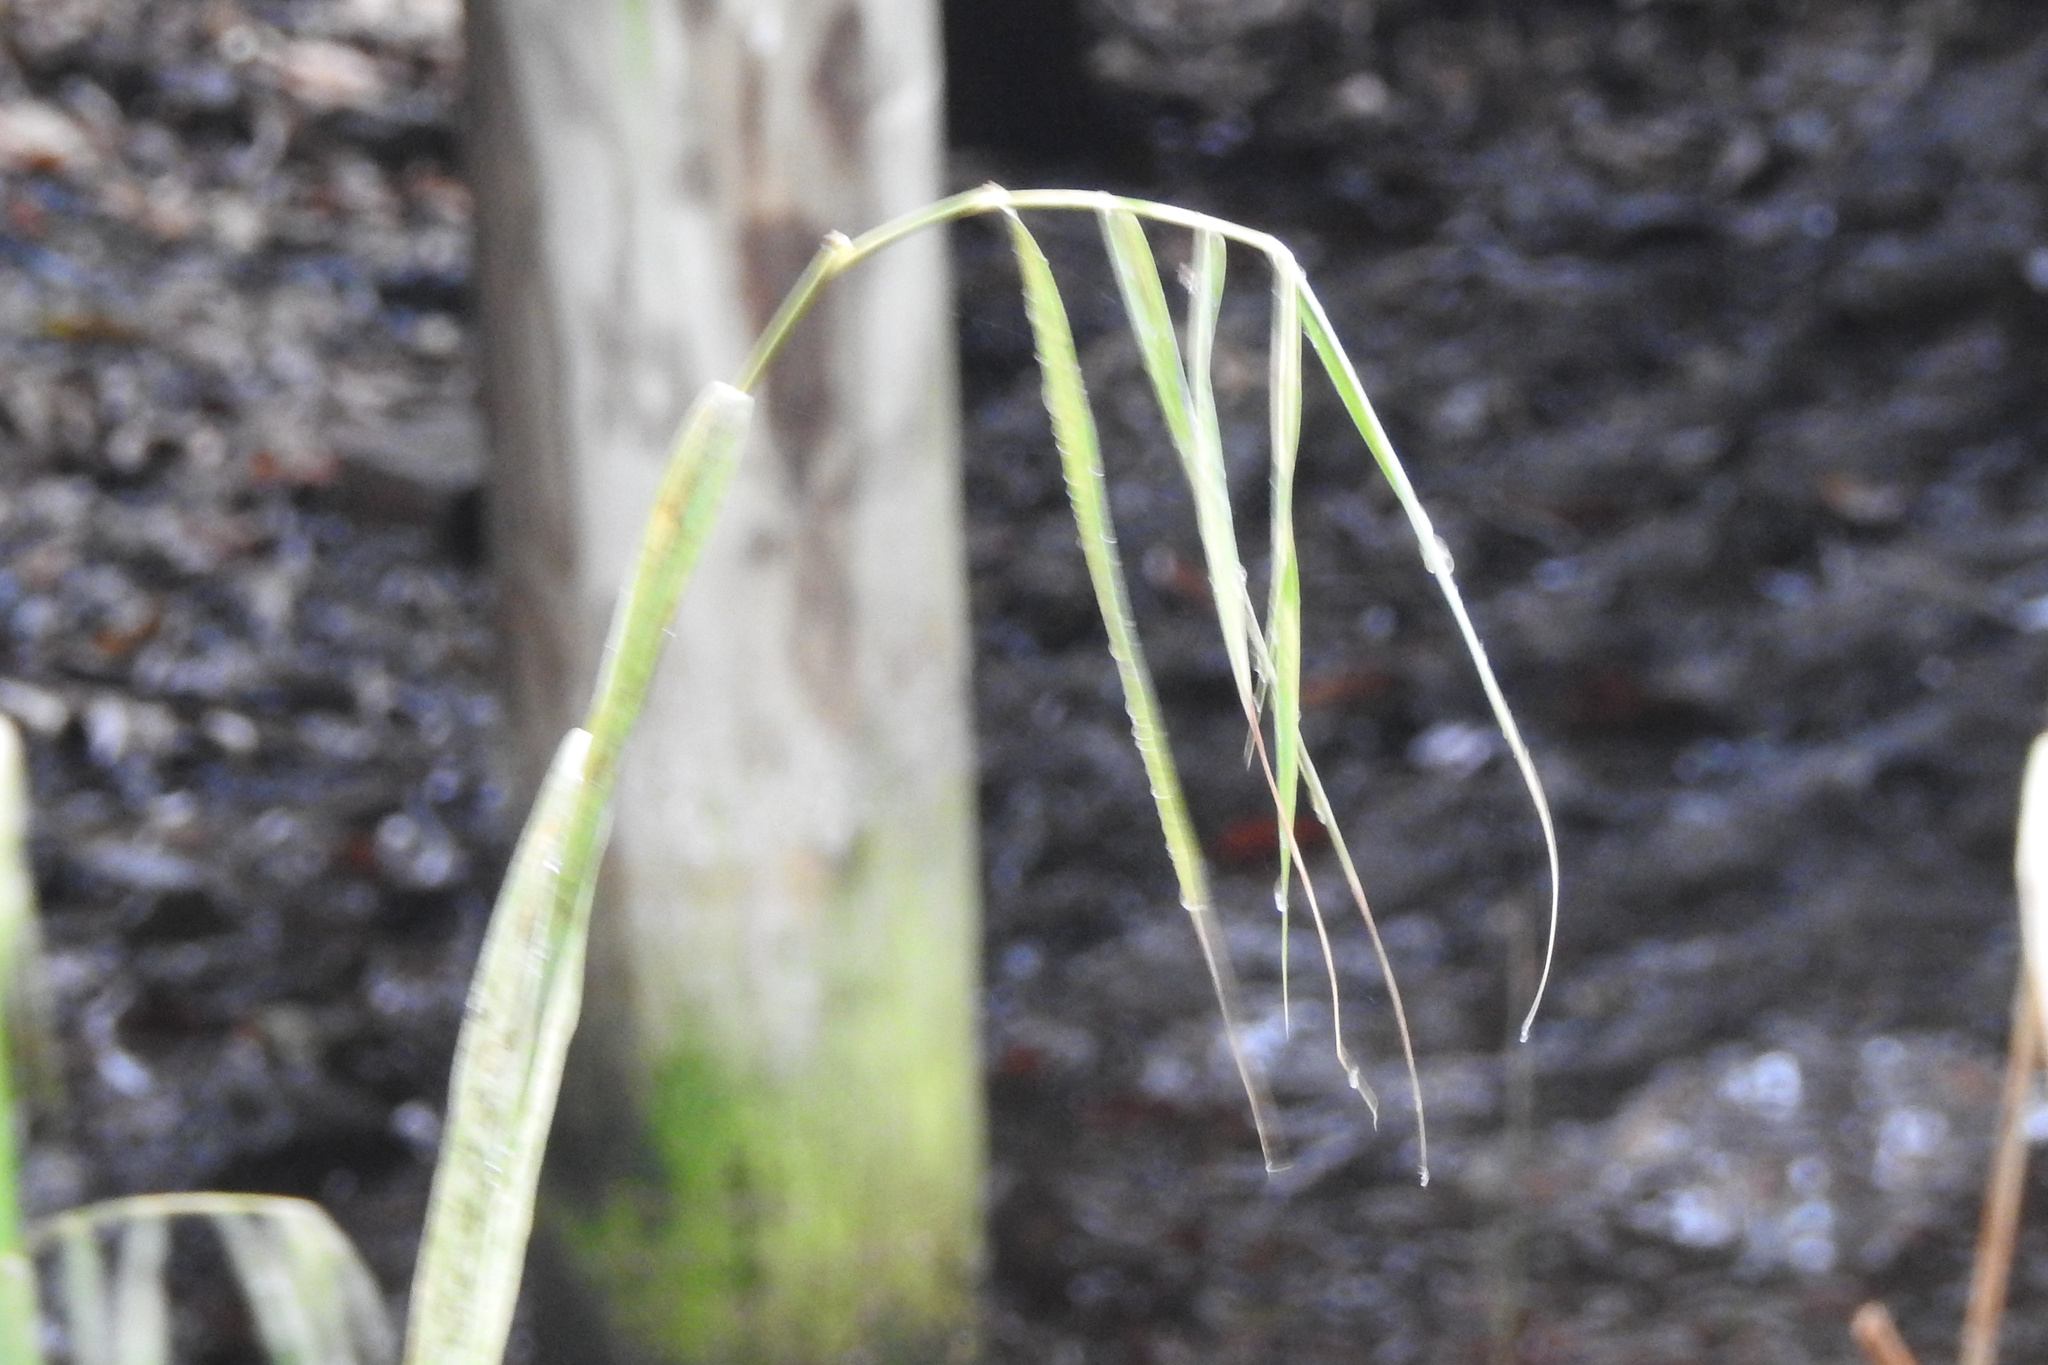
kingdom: Plantae
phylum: Tracheophyta
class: Liliopsida
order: Poales
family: Poaceae
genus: Phragmites
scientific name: Phragmites australis
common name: Common reed
